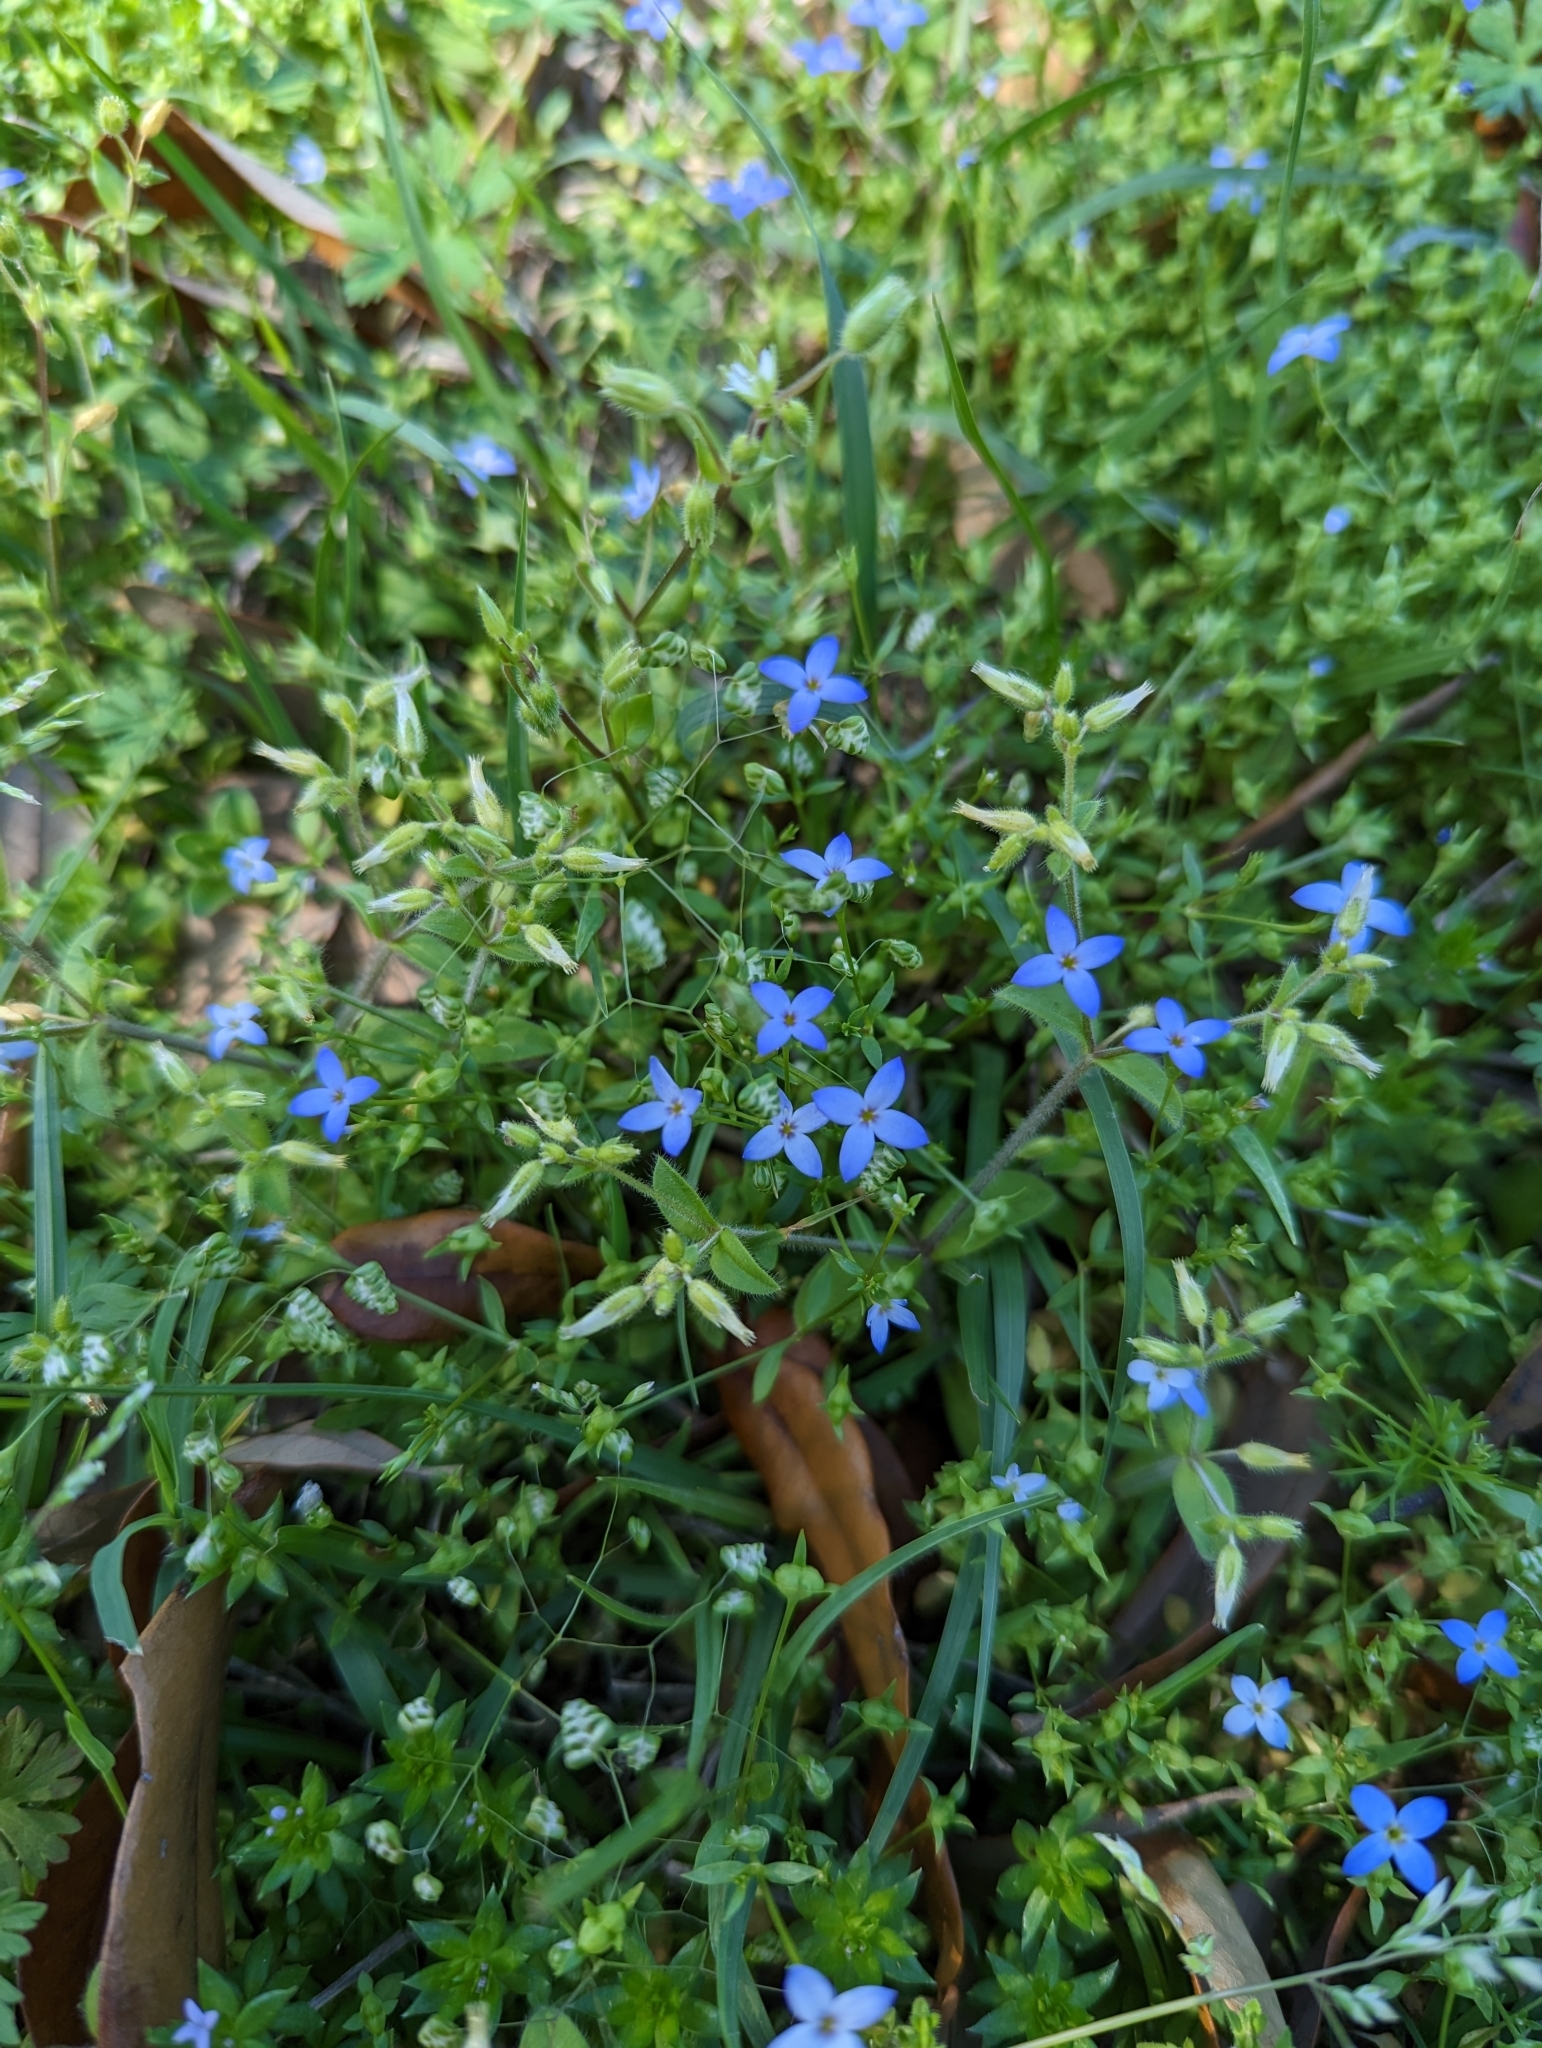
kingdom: Plantae
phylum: Tracheophyta
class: Magnoliopsida
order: Gentianales
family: Rubiaceae
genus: Houstonia
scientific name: Houstonia pusilla
